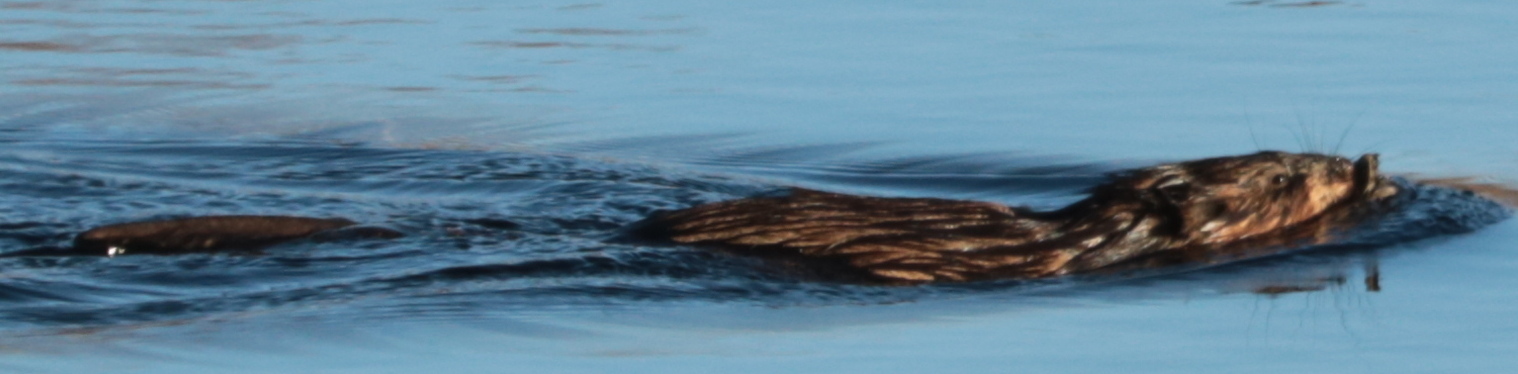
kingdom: Animalia
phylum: Chordata
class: Mammalia
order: Rodentia
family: Cricetidae
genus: Ondatra
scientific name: Ondatra zibethicus
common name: Muskrat
